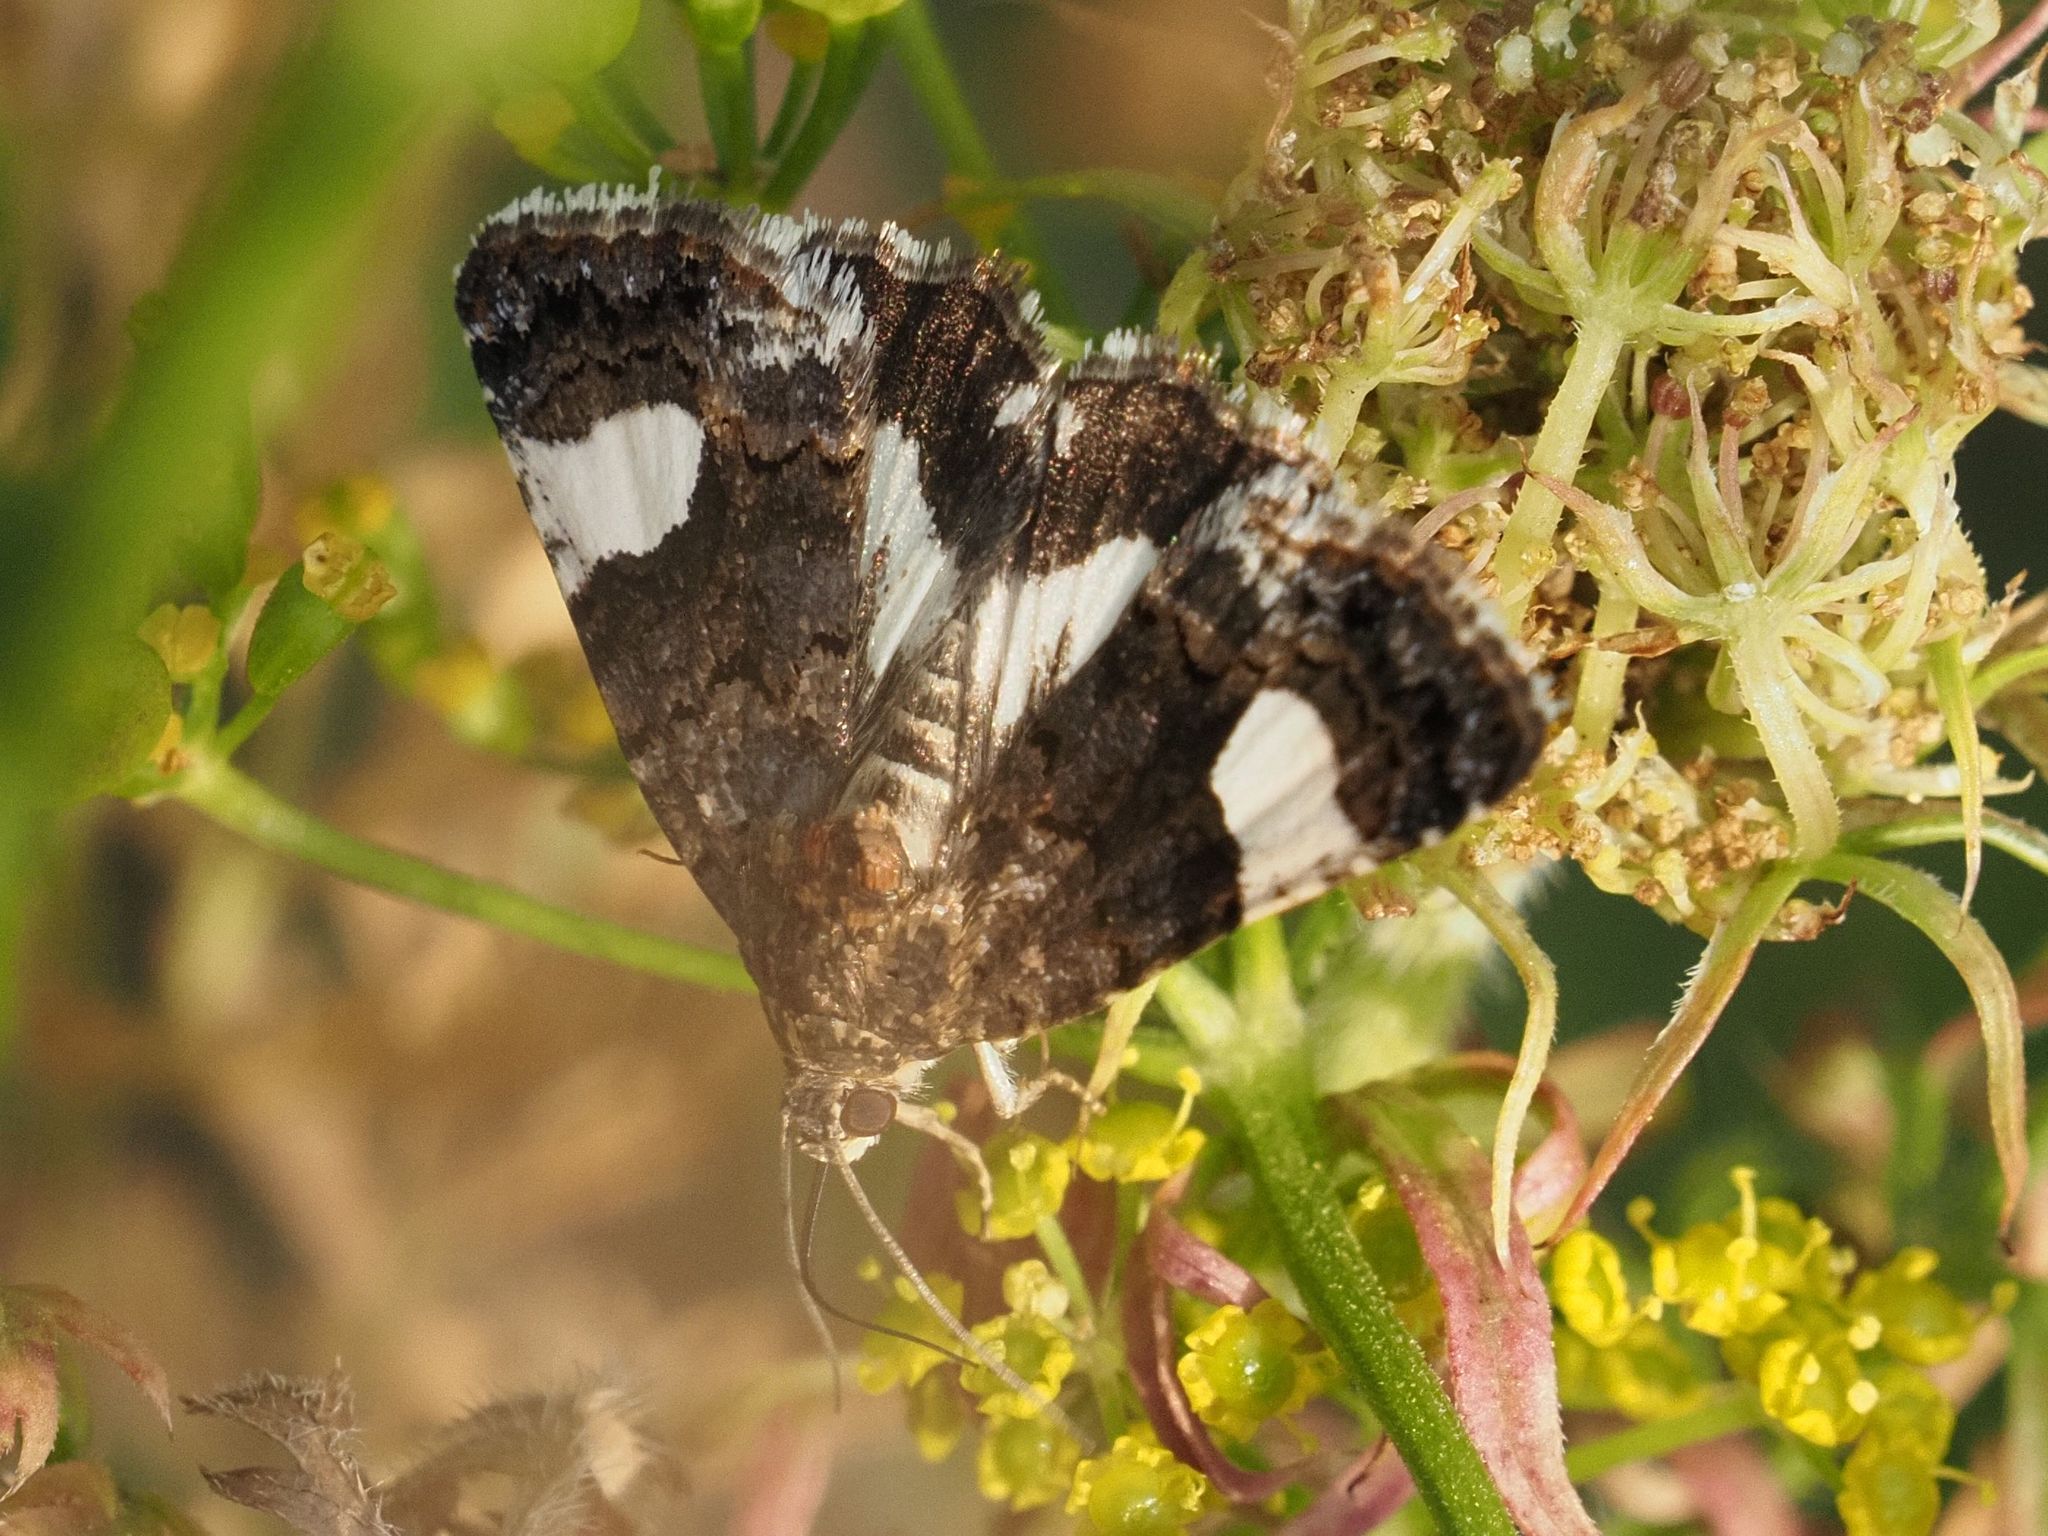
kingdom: Animalia
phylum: Arthropoda
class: Insecta
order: Lepidoptera
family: Erebidae
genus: Tyta
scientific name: Tyta luctuosa
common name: Four-spotted
